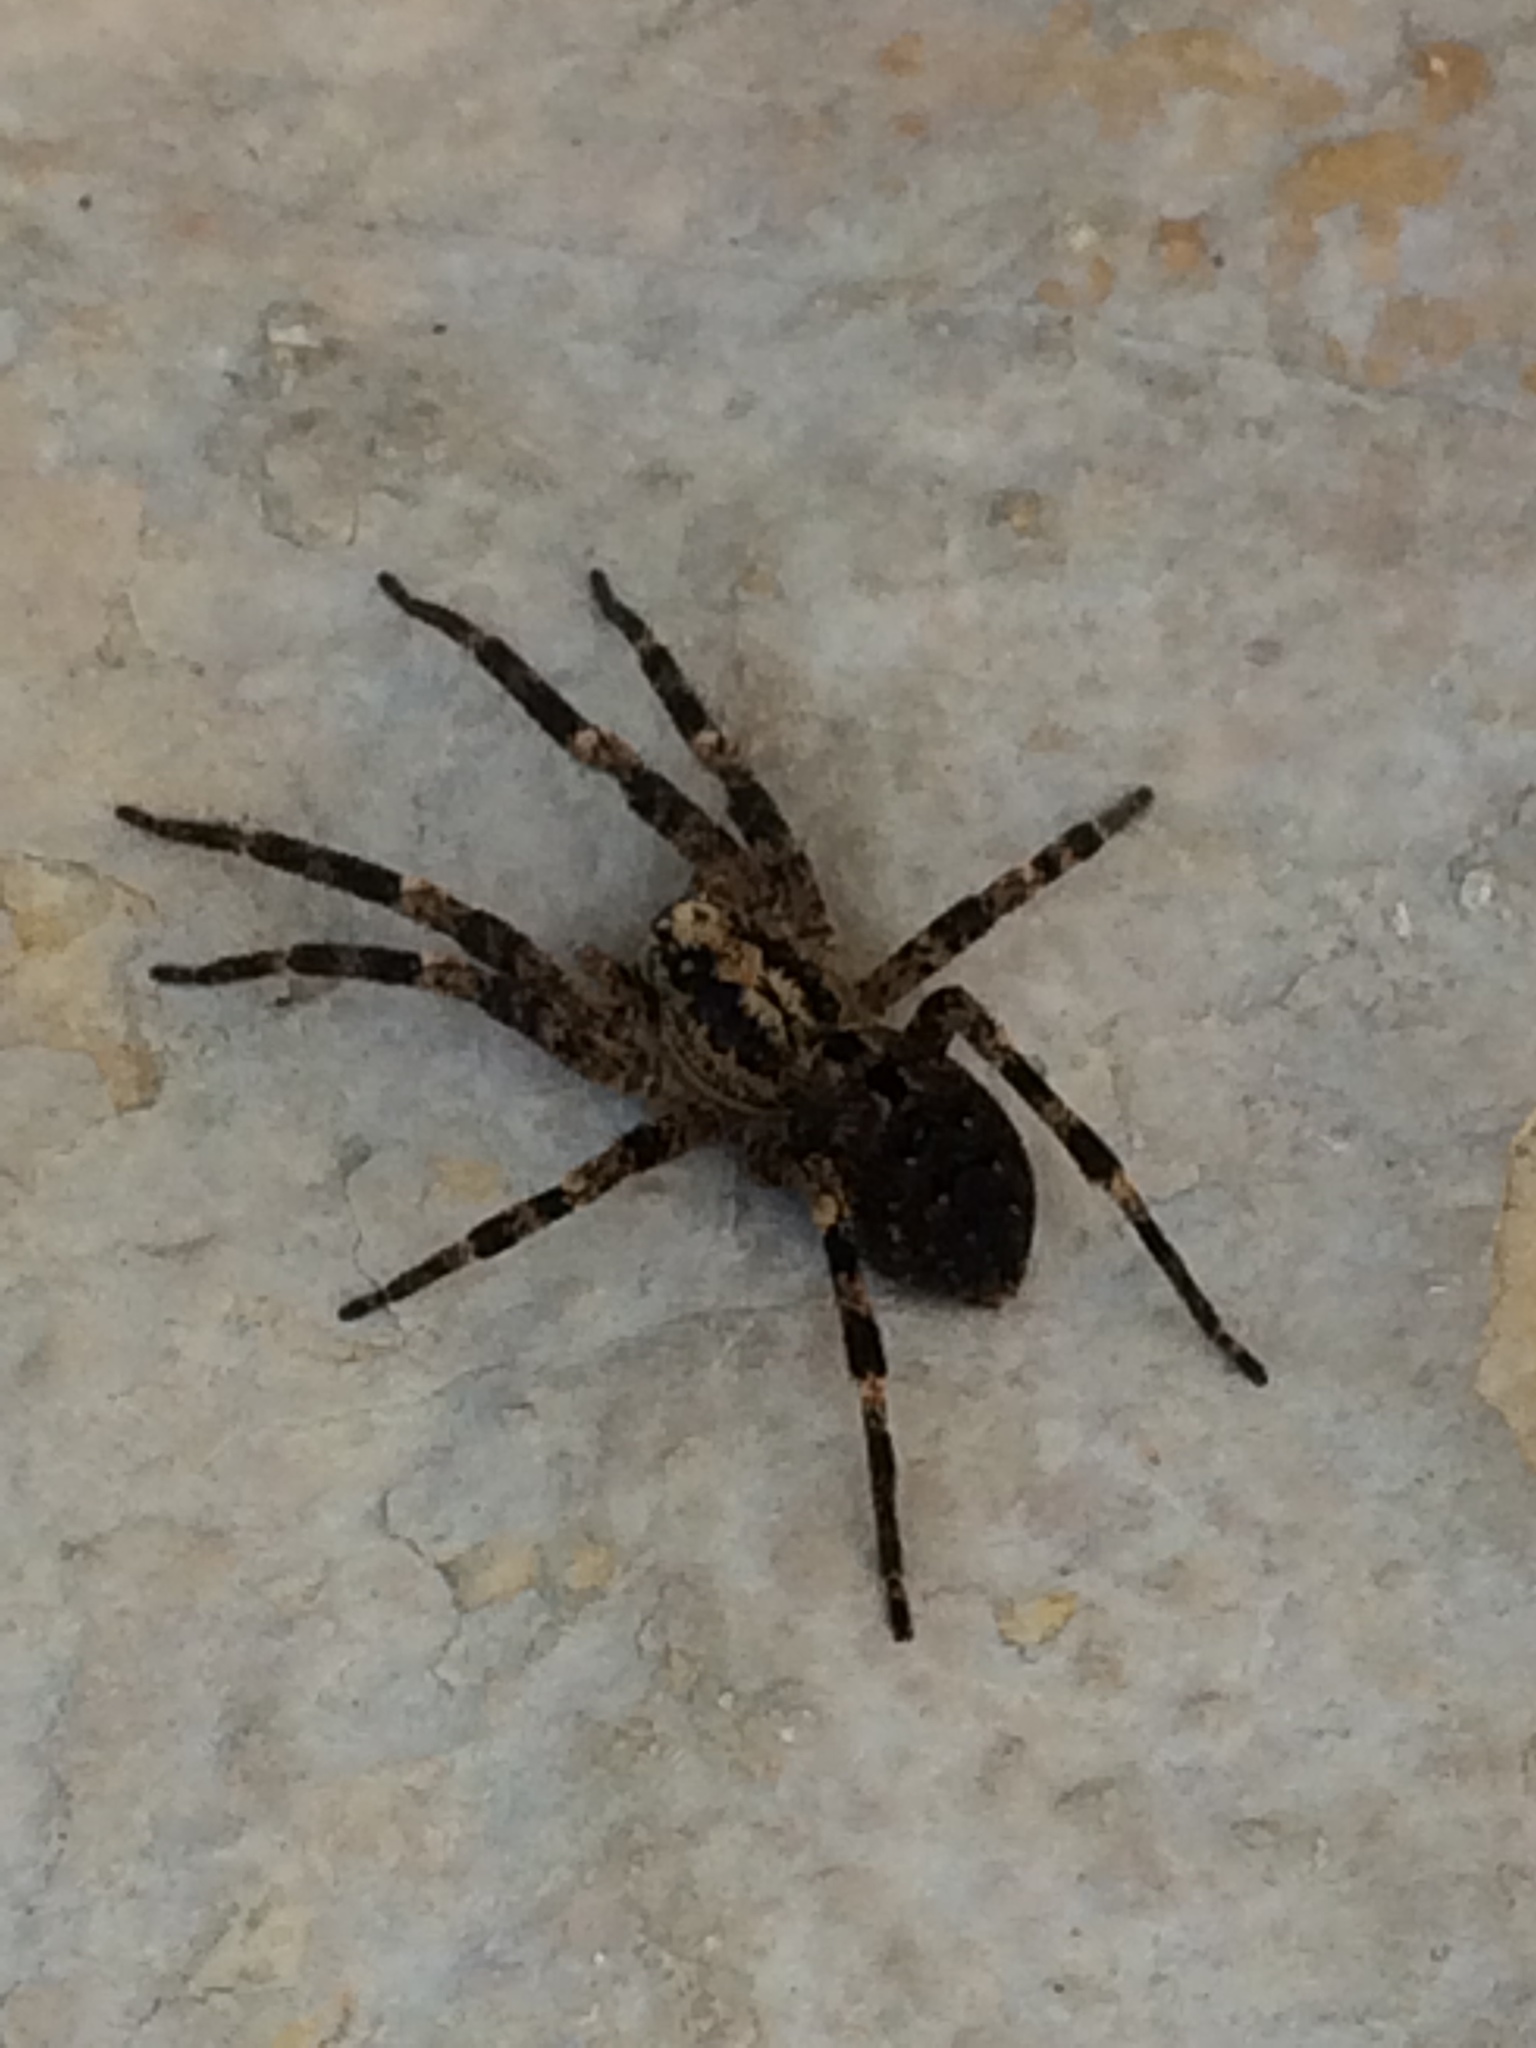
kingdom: Animalia
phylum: Arthropoda
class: Arachnida
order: Araneae
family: Zoropsidae
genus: Zoropsis
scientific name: Zoropsis spinimana
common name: Zoropsid spider
